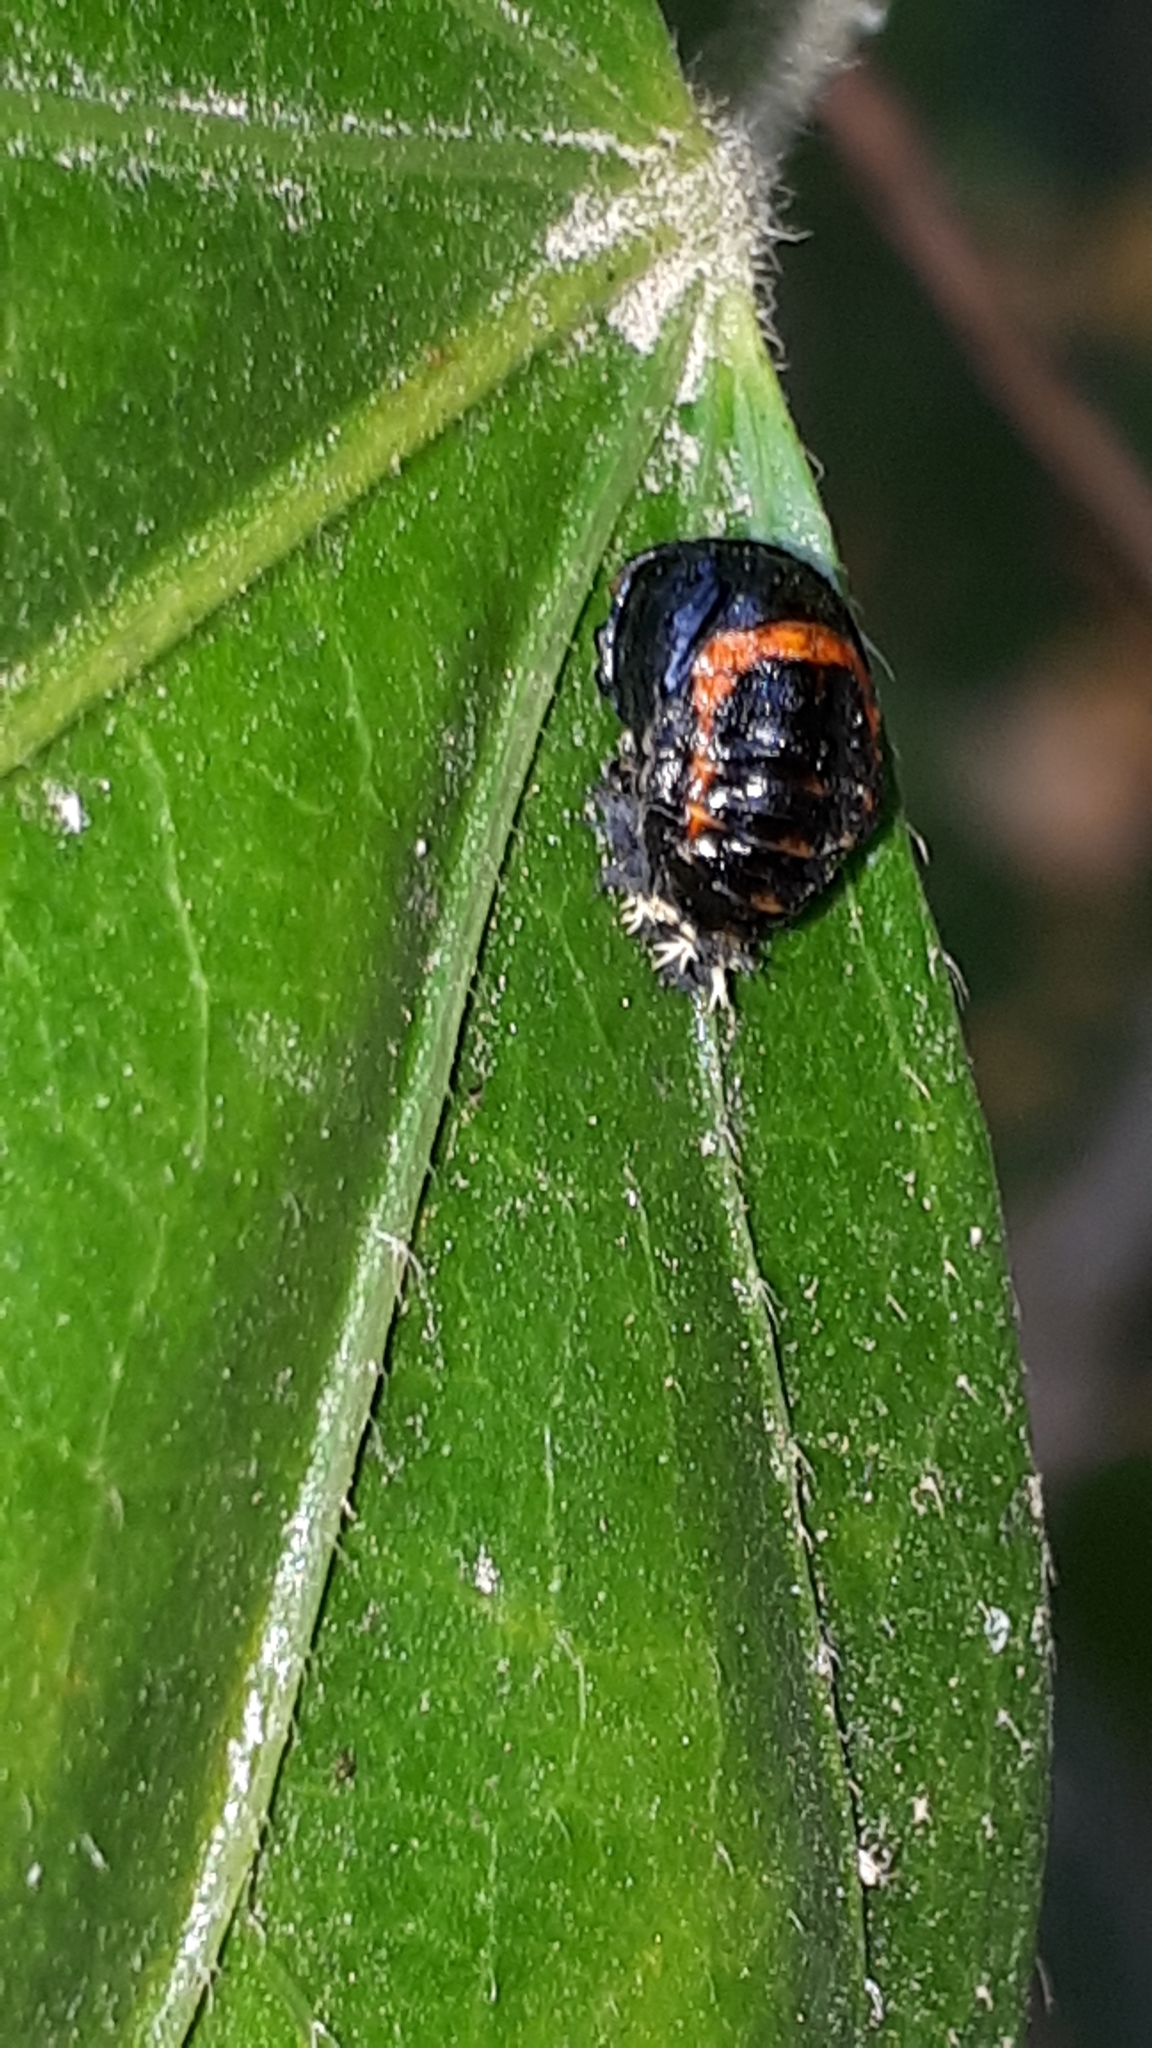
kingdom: Animalia
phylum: Arthropoda
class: Insecta
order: Coleoptera
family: Coccinellidae
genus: Harmonia
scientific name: Harmonia axyridis
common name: Harlequin ladybird
